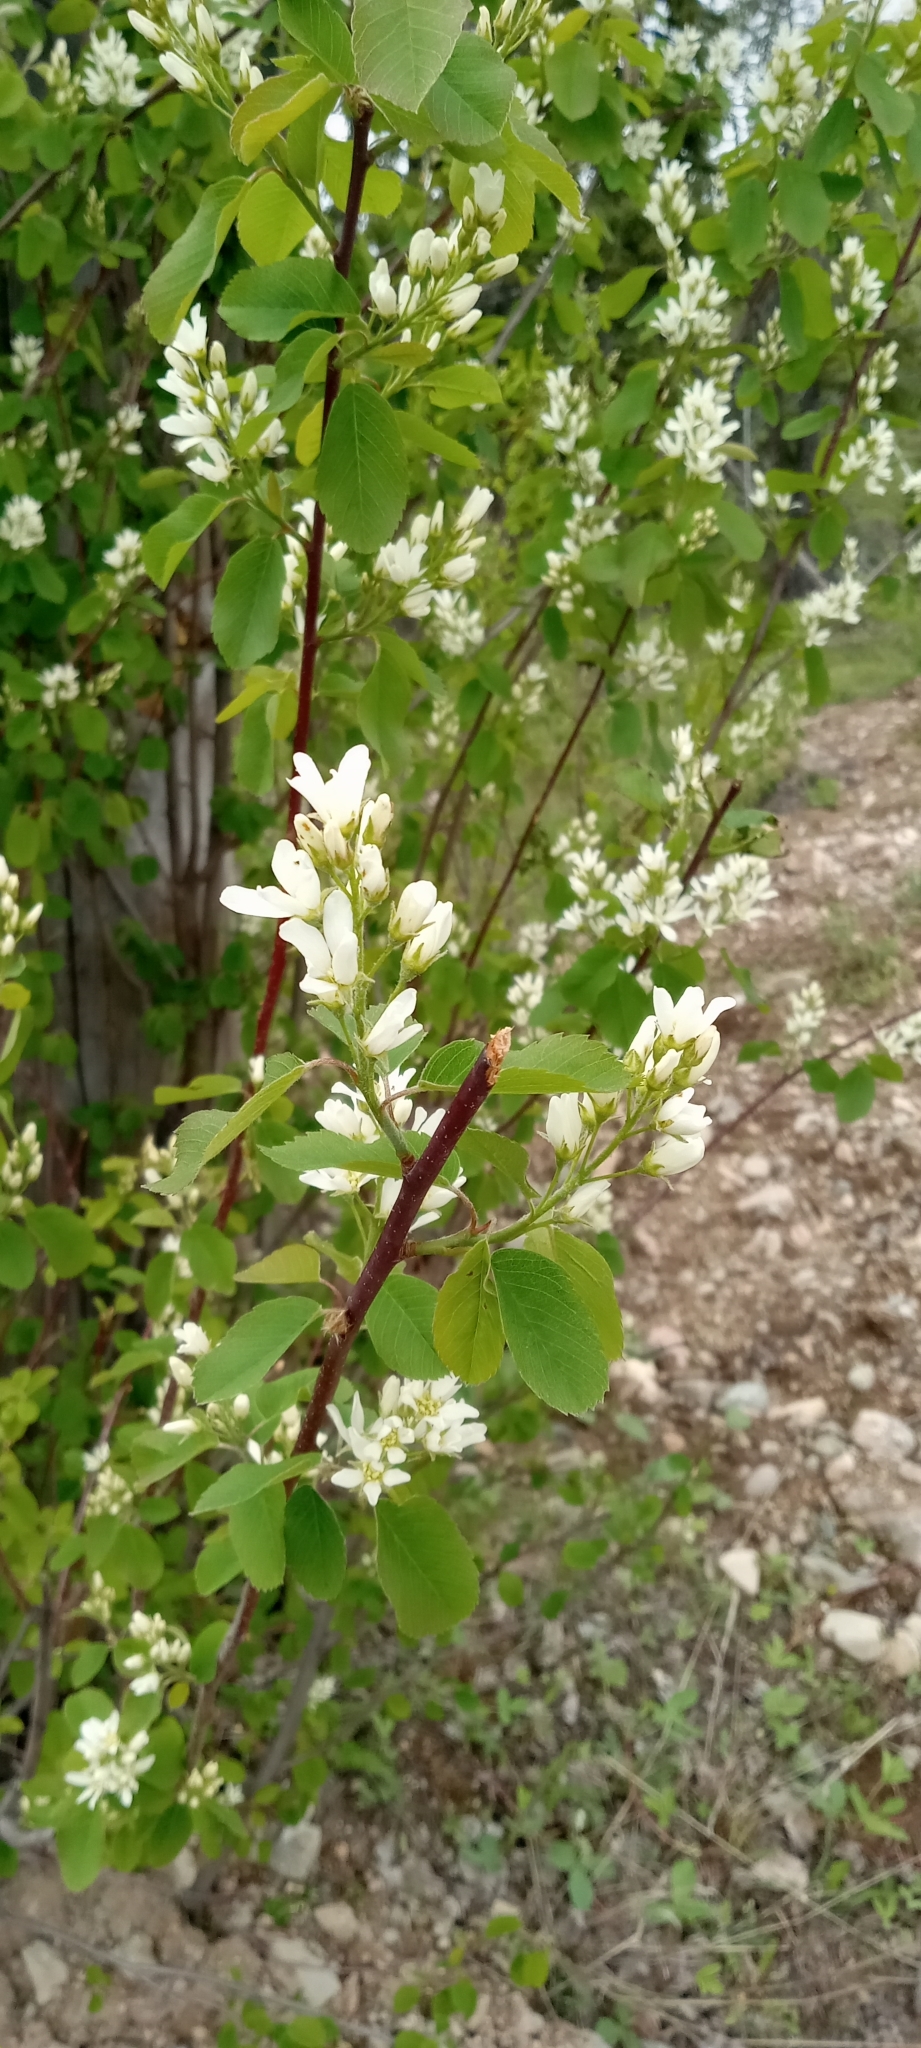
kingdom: Plantae
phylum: Tracheophyta
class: Magnoliopsida
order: Rosales
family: Rosaceae
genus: Amelanchier
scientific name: Amelanchier alnifolia
